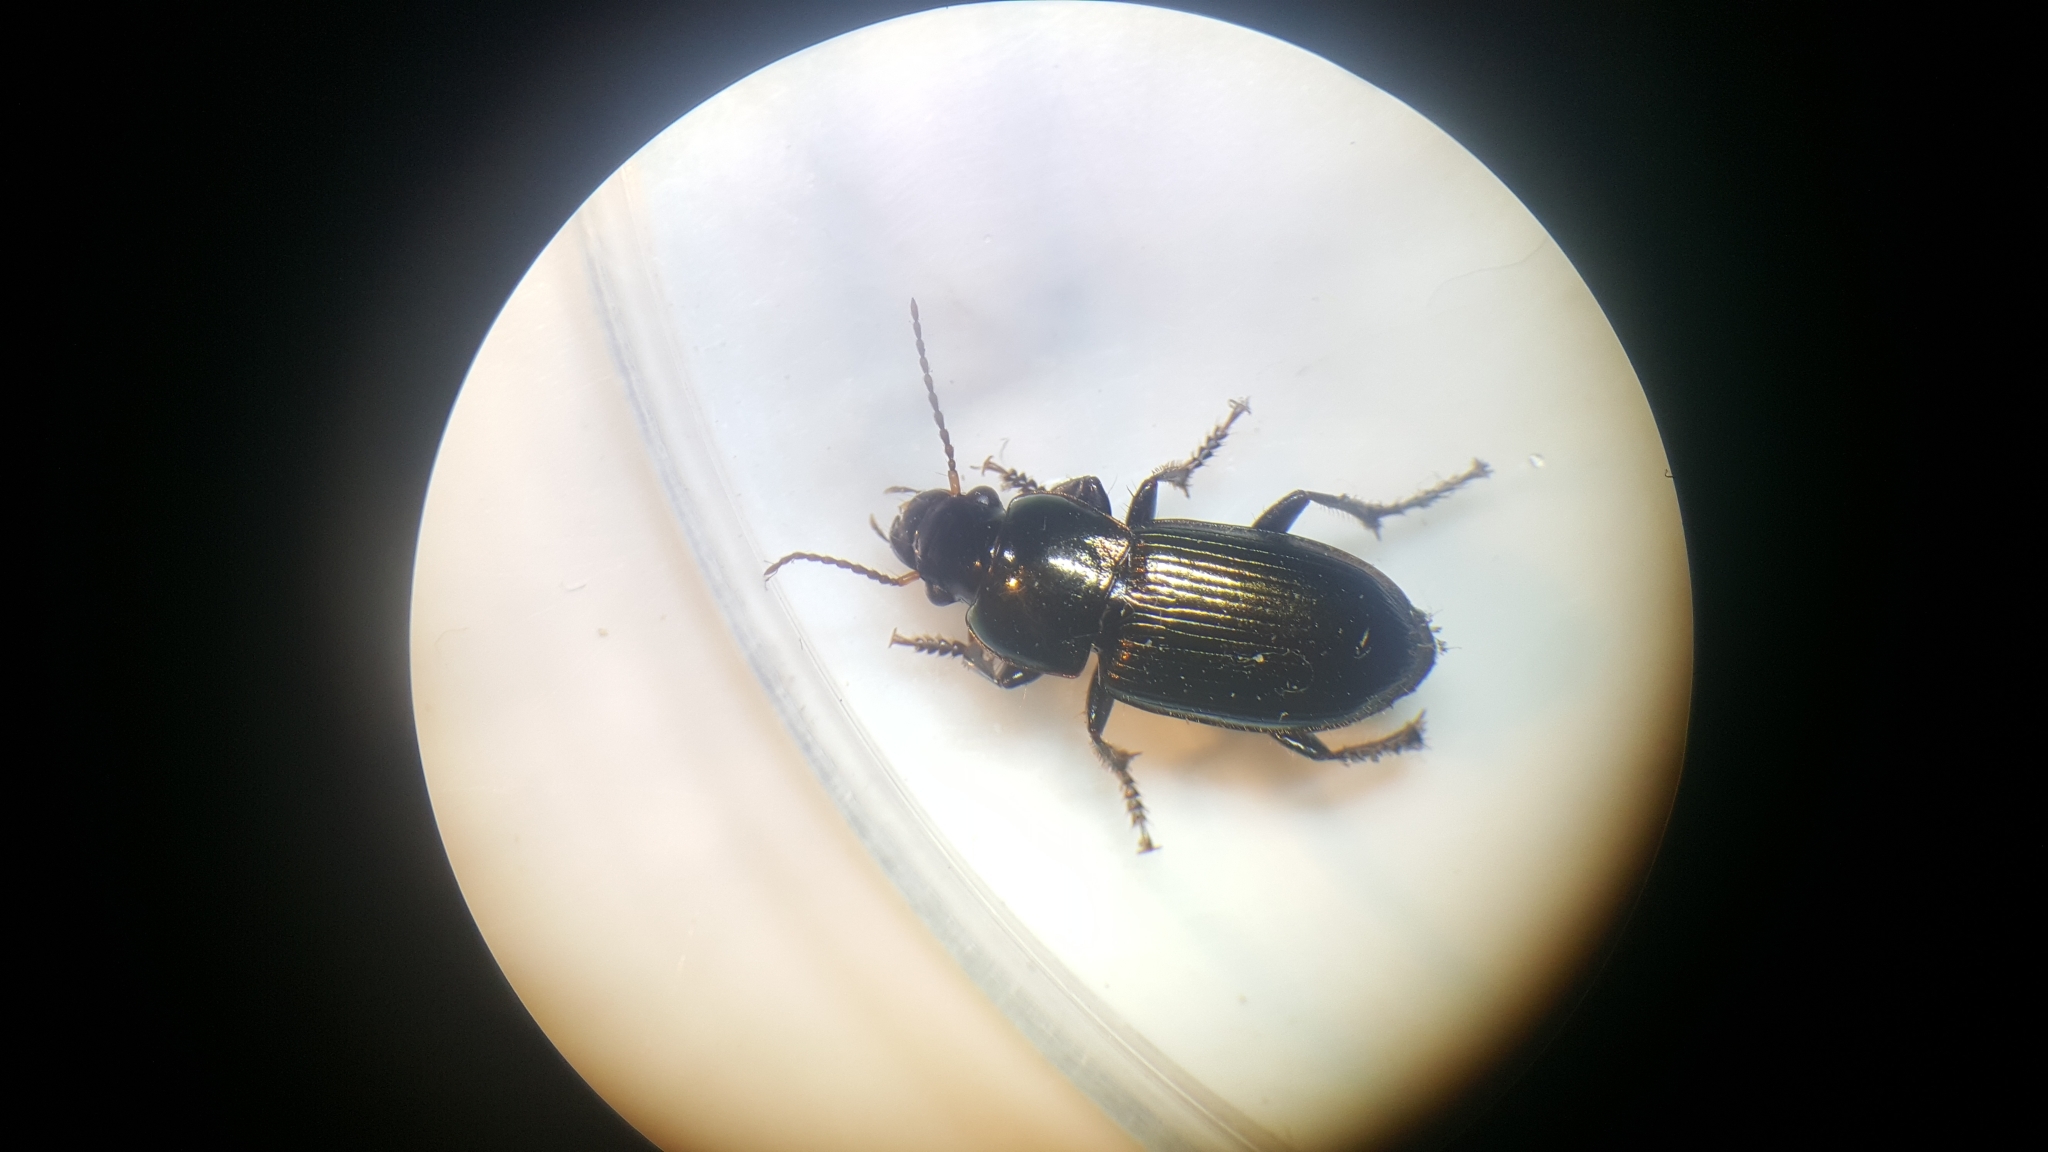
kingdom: Animalia
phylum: Arthropoda
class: Insecta
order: Coleoptera
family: Carabidae
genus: Harpalus
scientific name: Harpalus affinis
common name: Polychrome harp ground beetle
